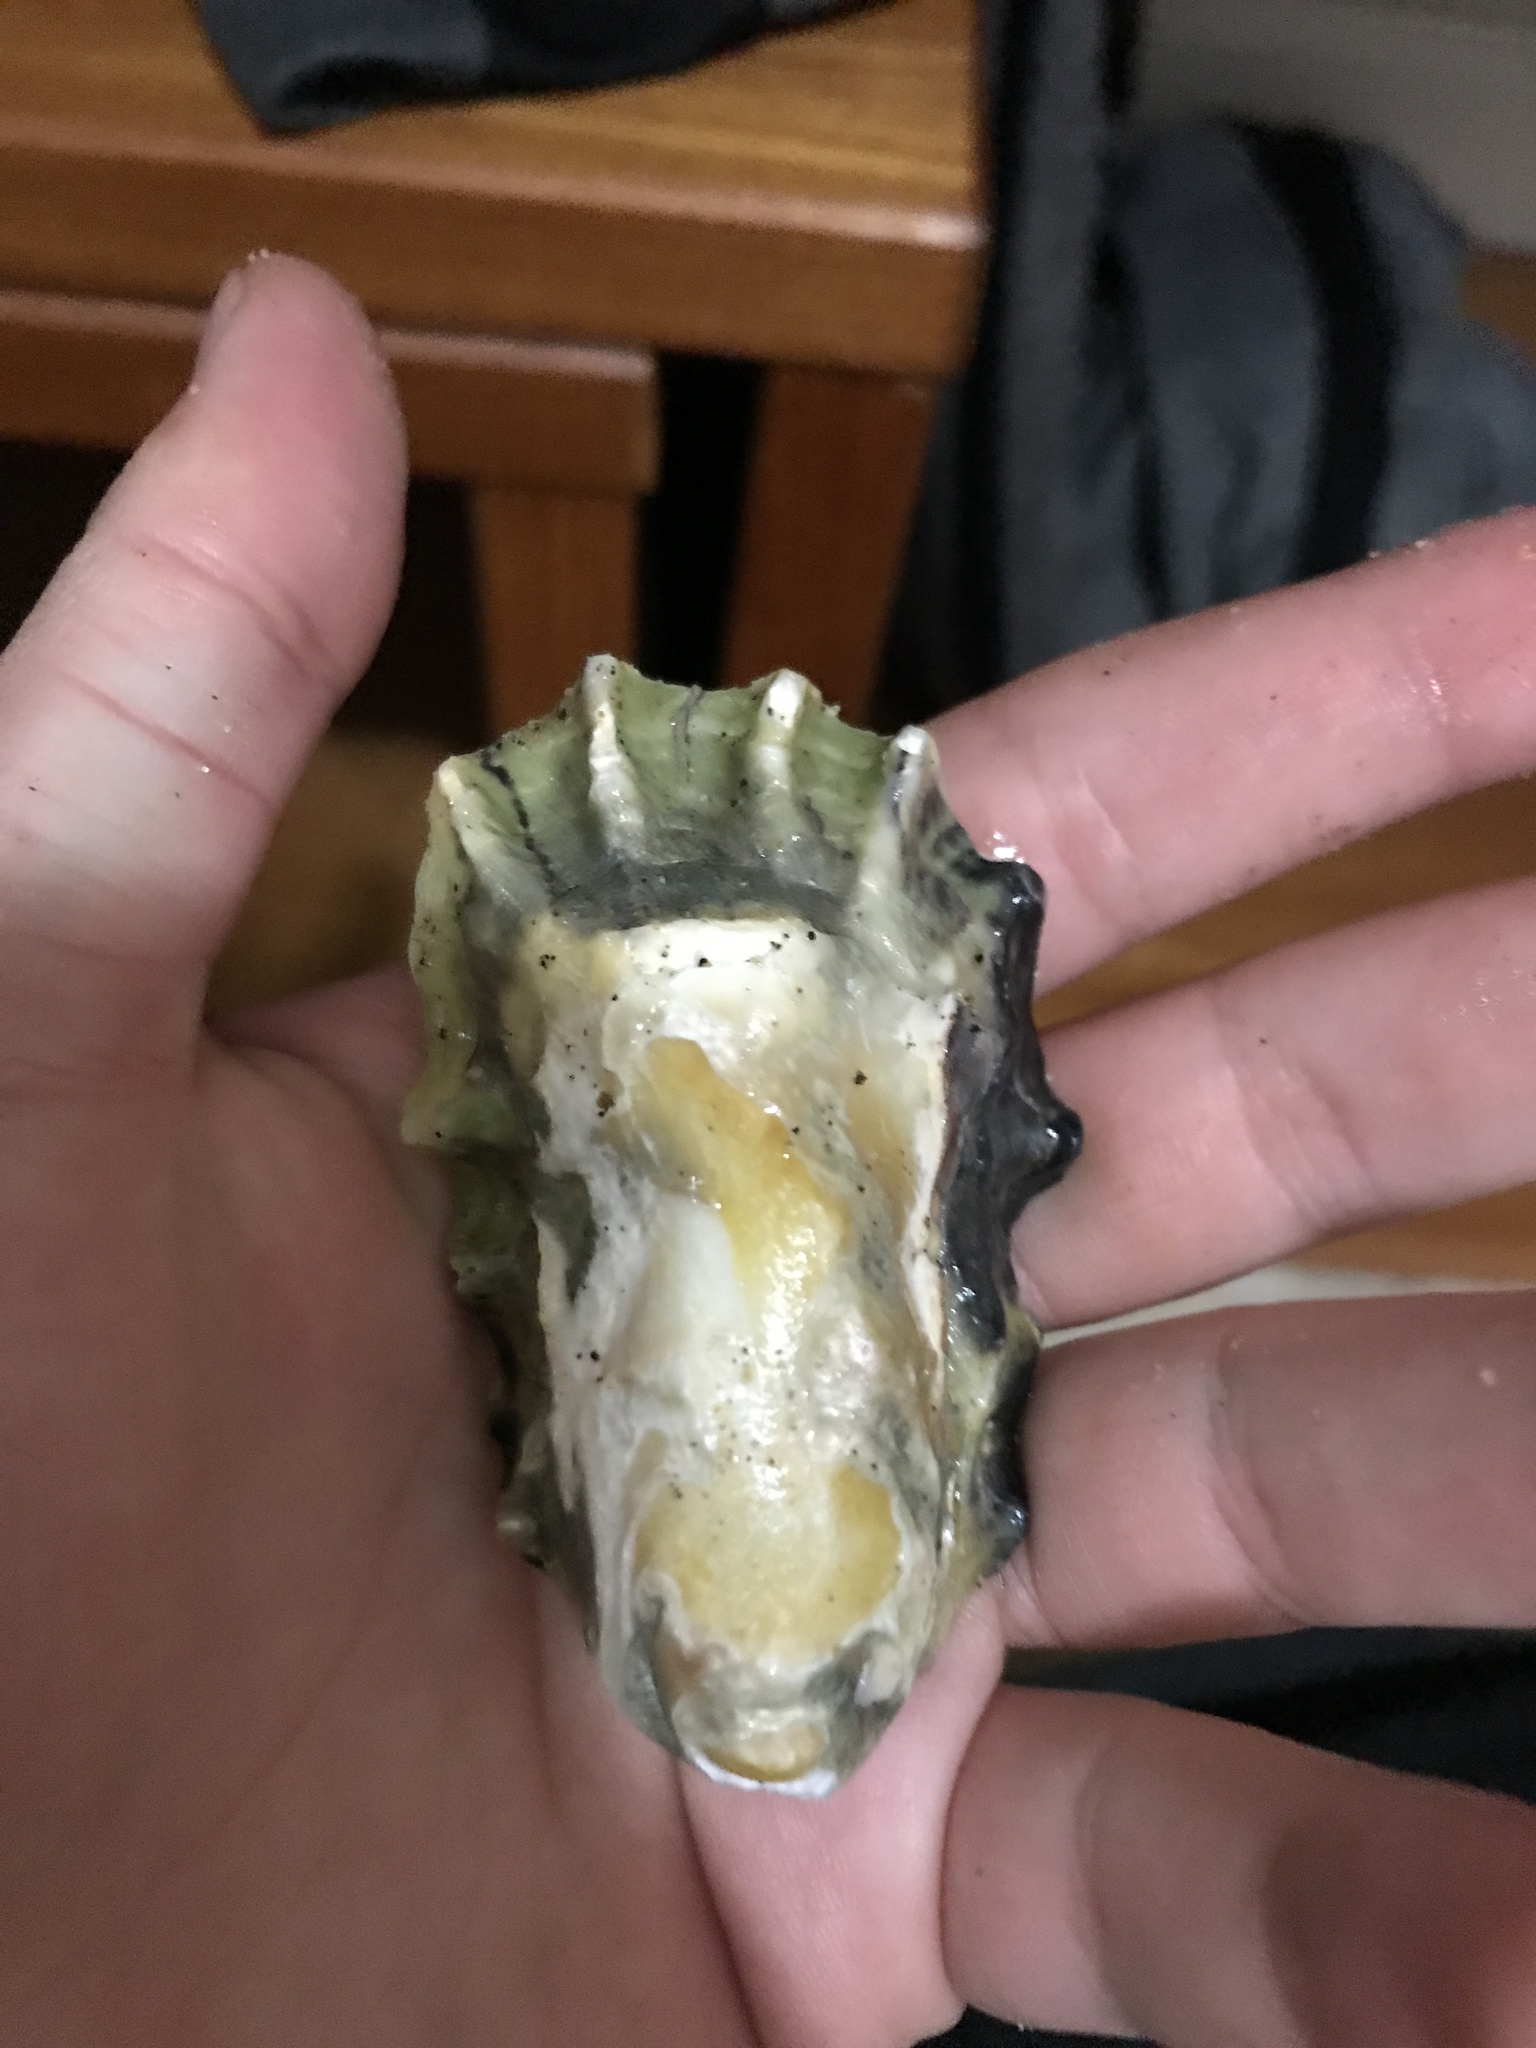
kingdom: Animalia
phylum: Mollusca
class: Bivalvia
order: Ostreida
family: Ostreidae
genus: Magallana
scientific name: Magallana gigas
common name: Pacific oyster
